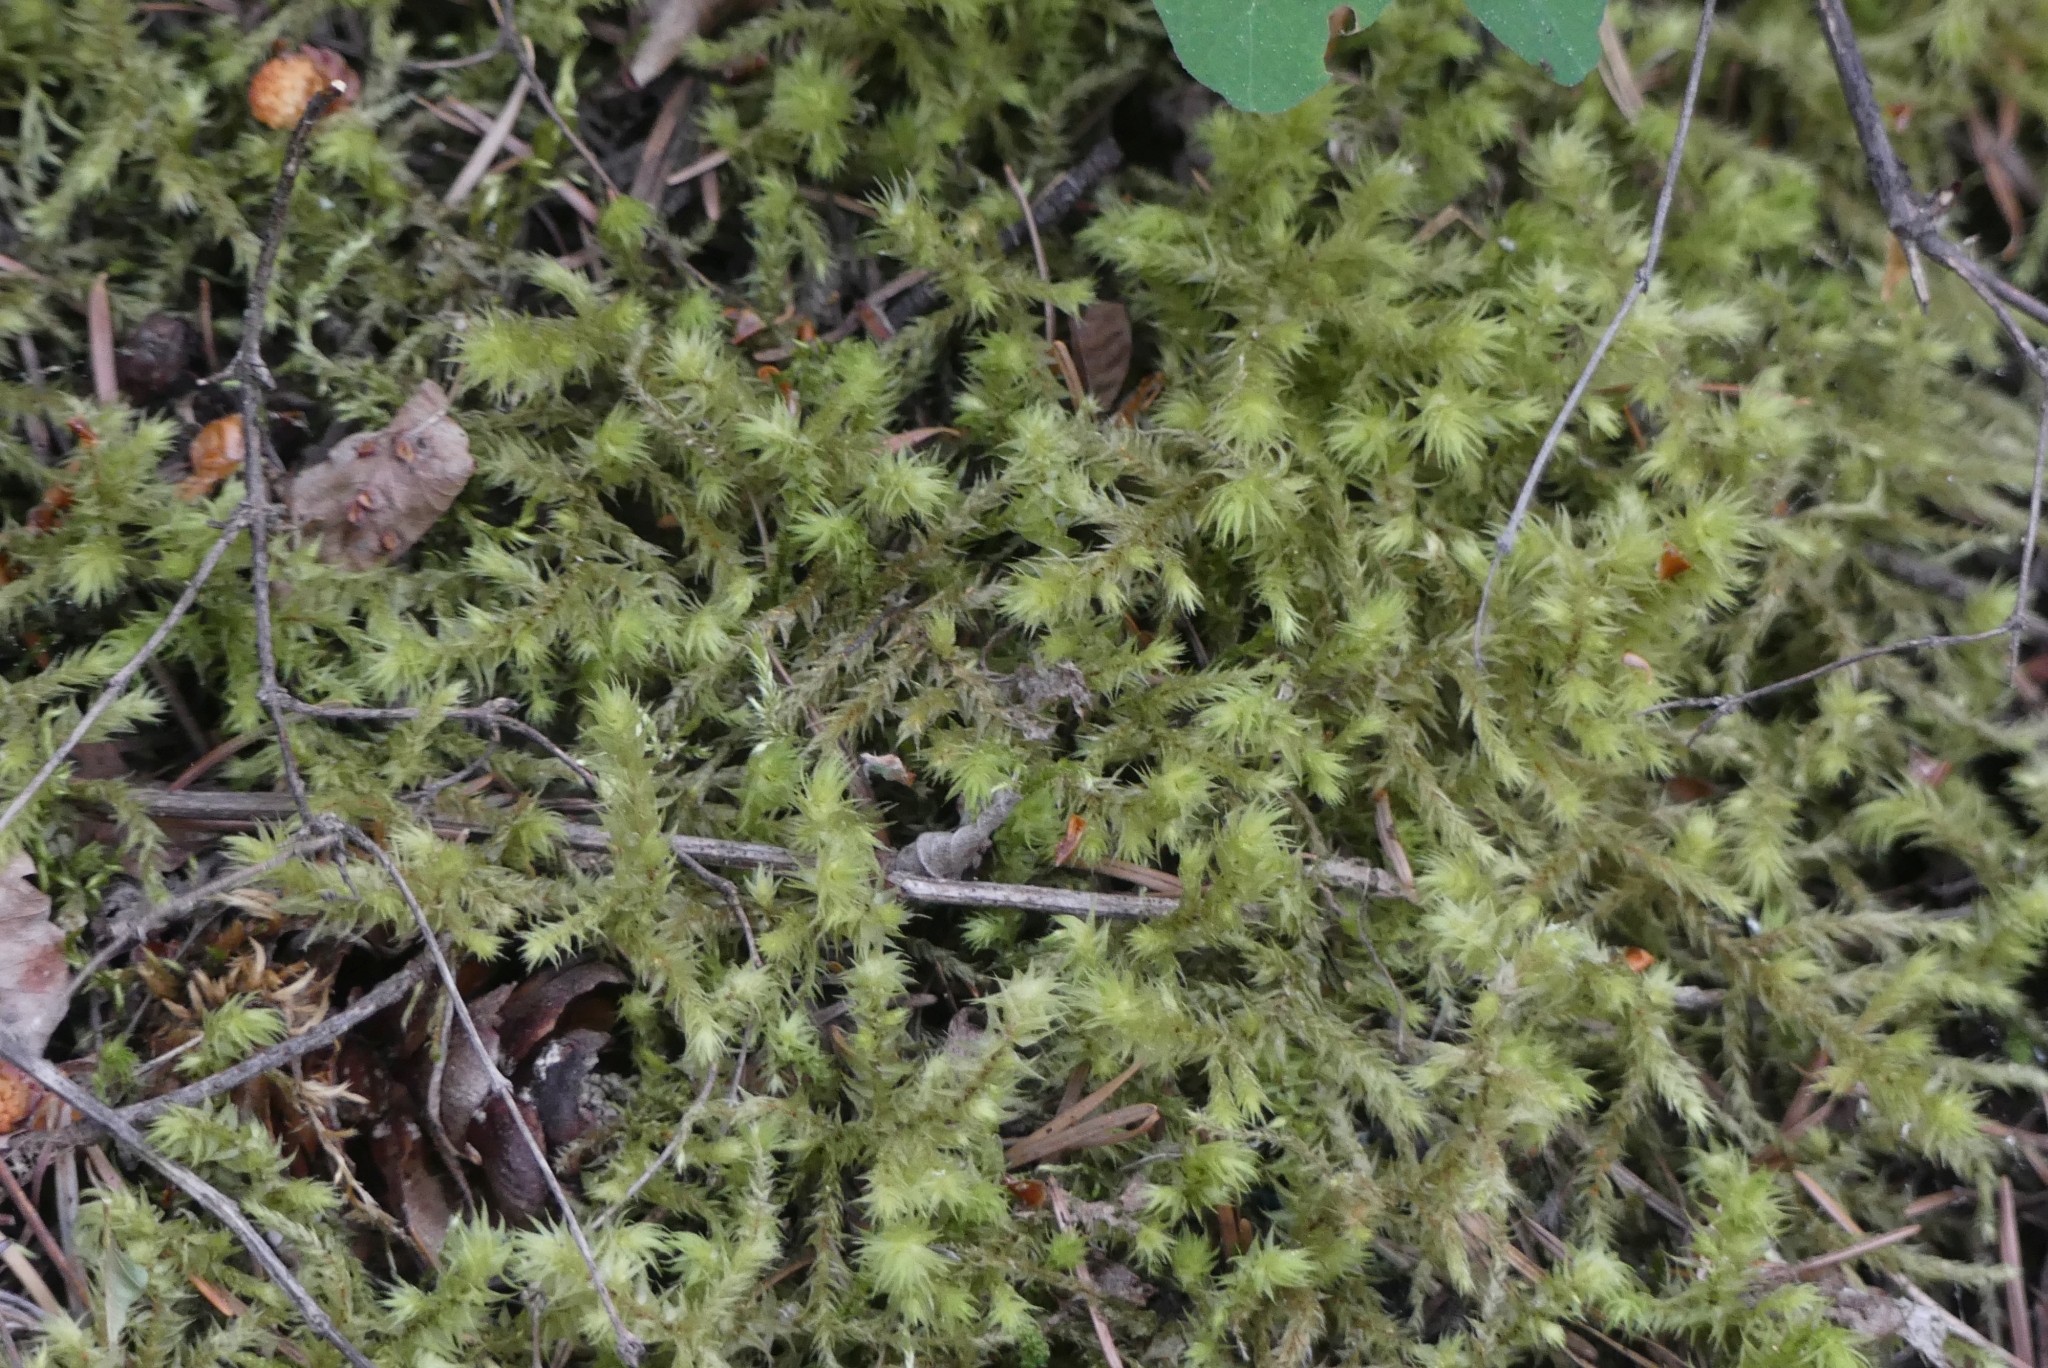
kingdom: Plantae
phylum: Bryophyta
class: Bryopsida
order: Hypnales
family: Hylocomiaceae
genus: Hylocomiadelphus
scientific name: Hylocomiadelphus triquetrus
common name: Rough goose neck moss
